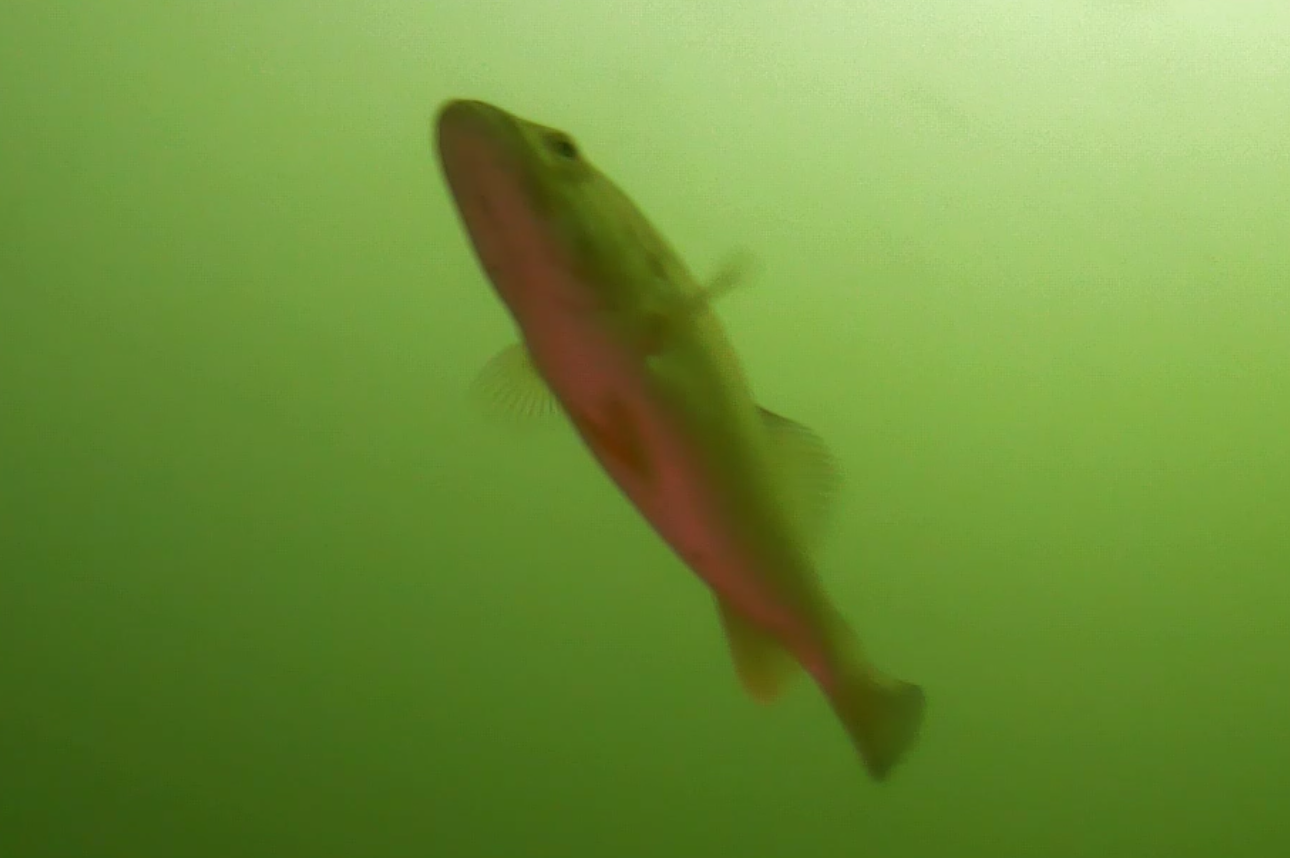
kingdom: Animalia
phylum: Chordata
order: Perciformes
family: Centrarchidae
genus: Micropterus
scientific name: Micropterus
